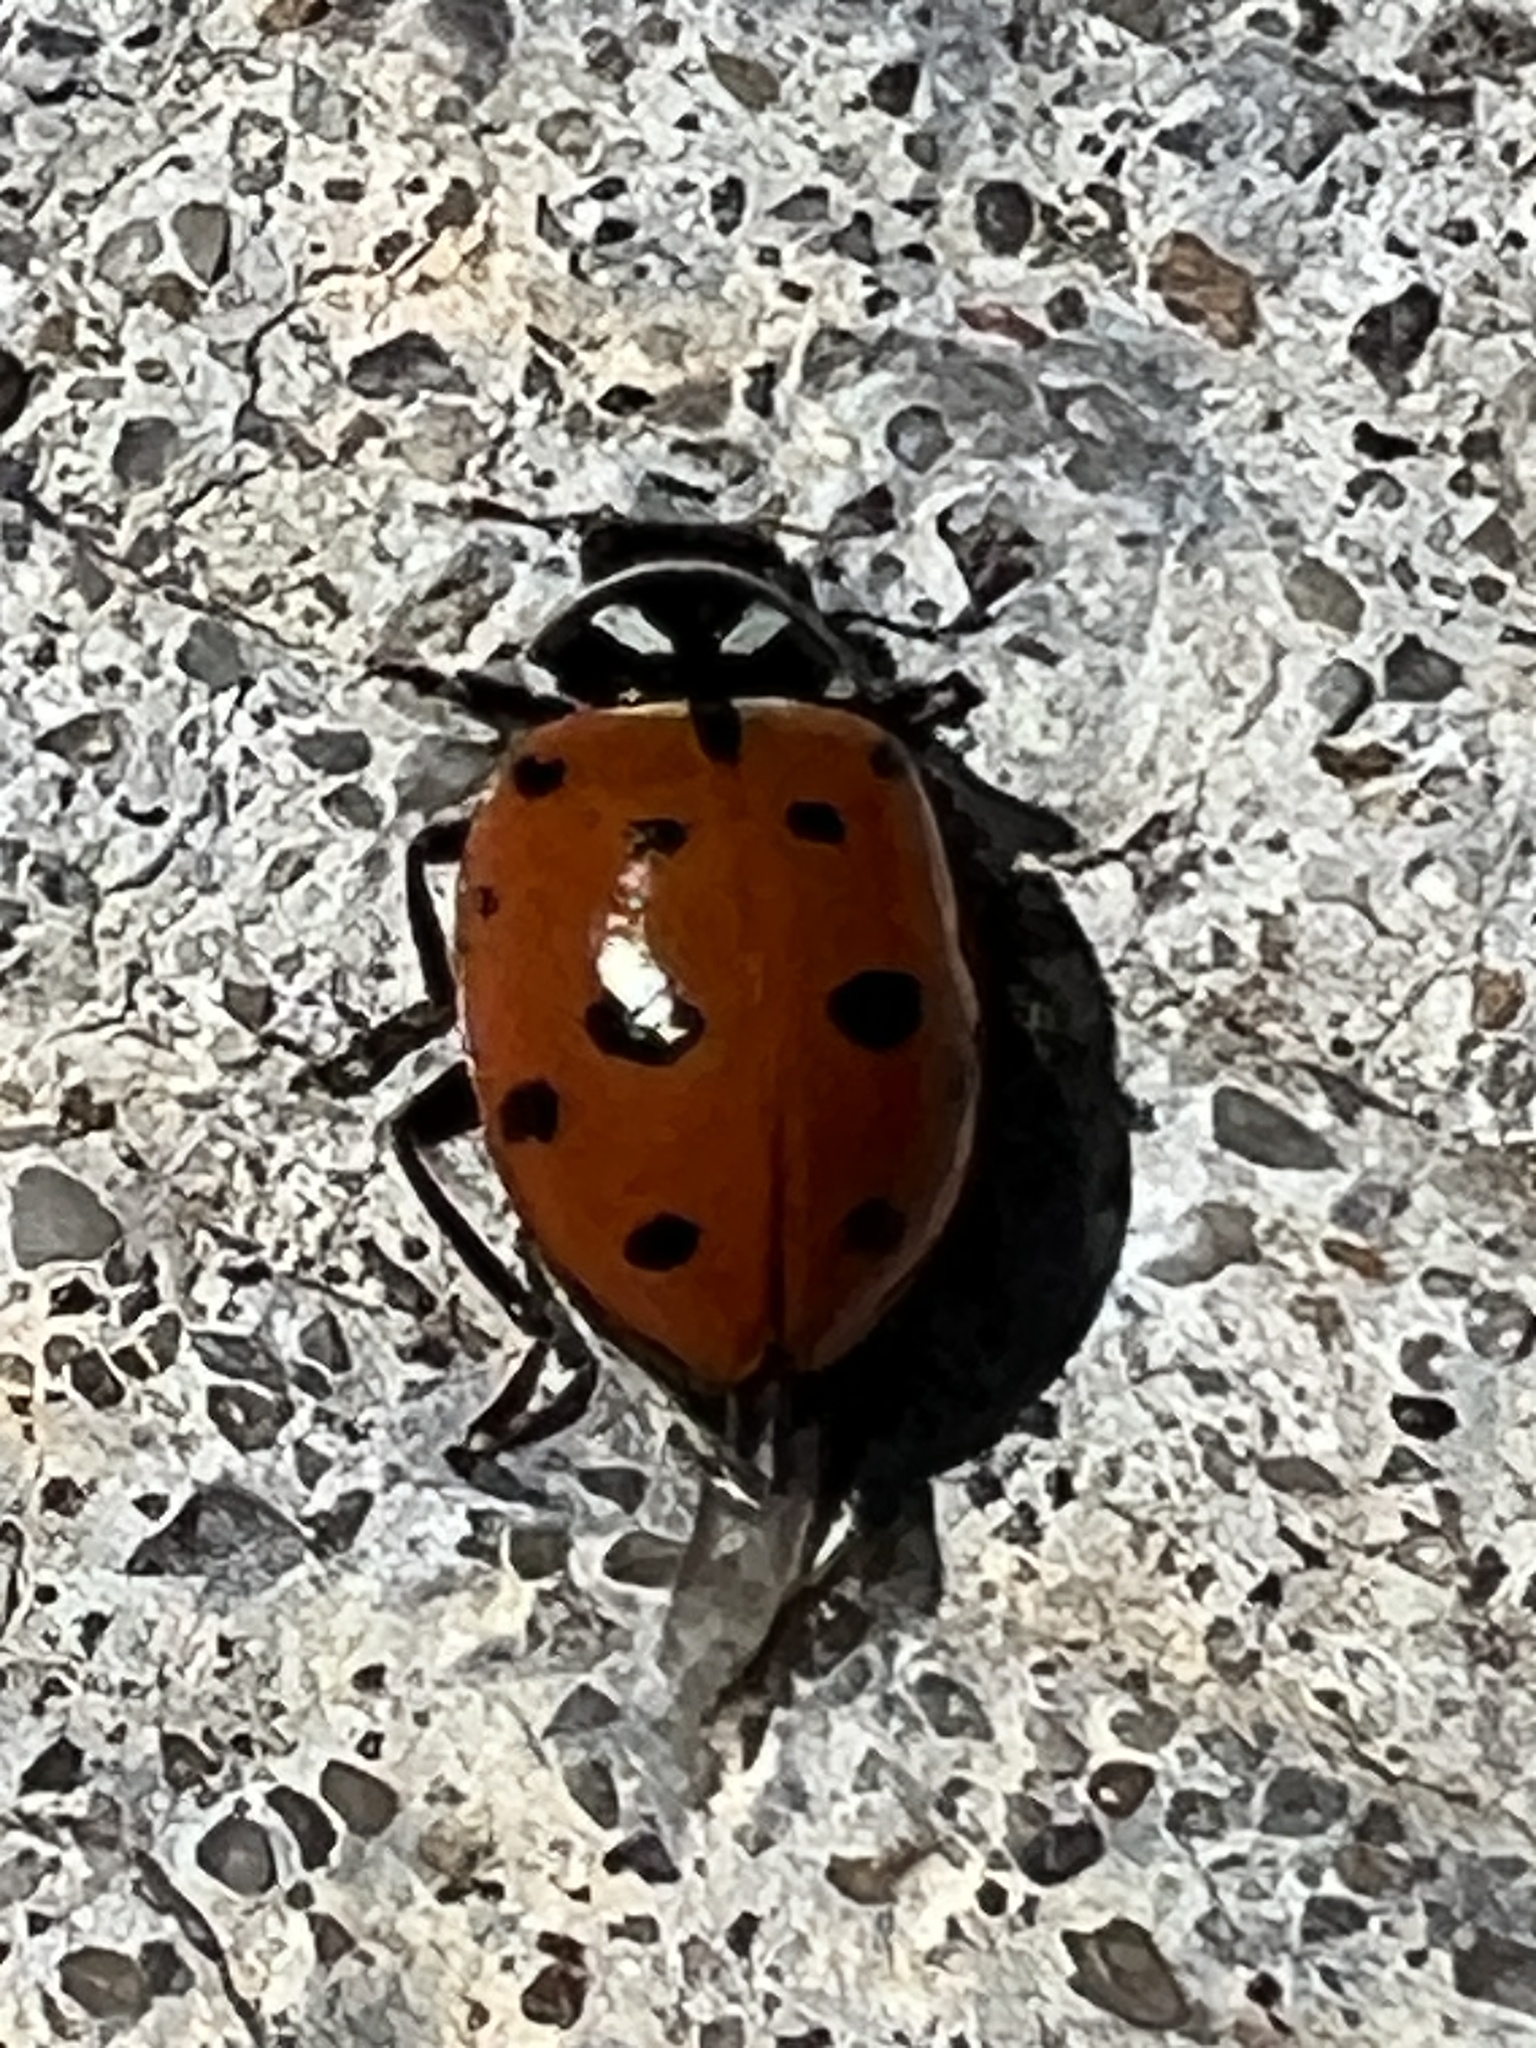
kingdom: Animalia
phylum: Arthropoda
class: Insecta
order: Coleoptera
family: Coccinellidae
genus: Hippodamia
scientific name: Hippodamia convergens
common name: Convergent lady beetle
